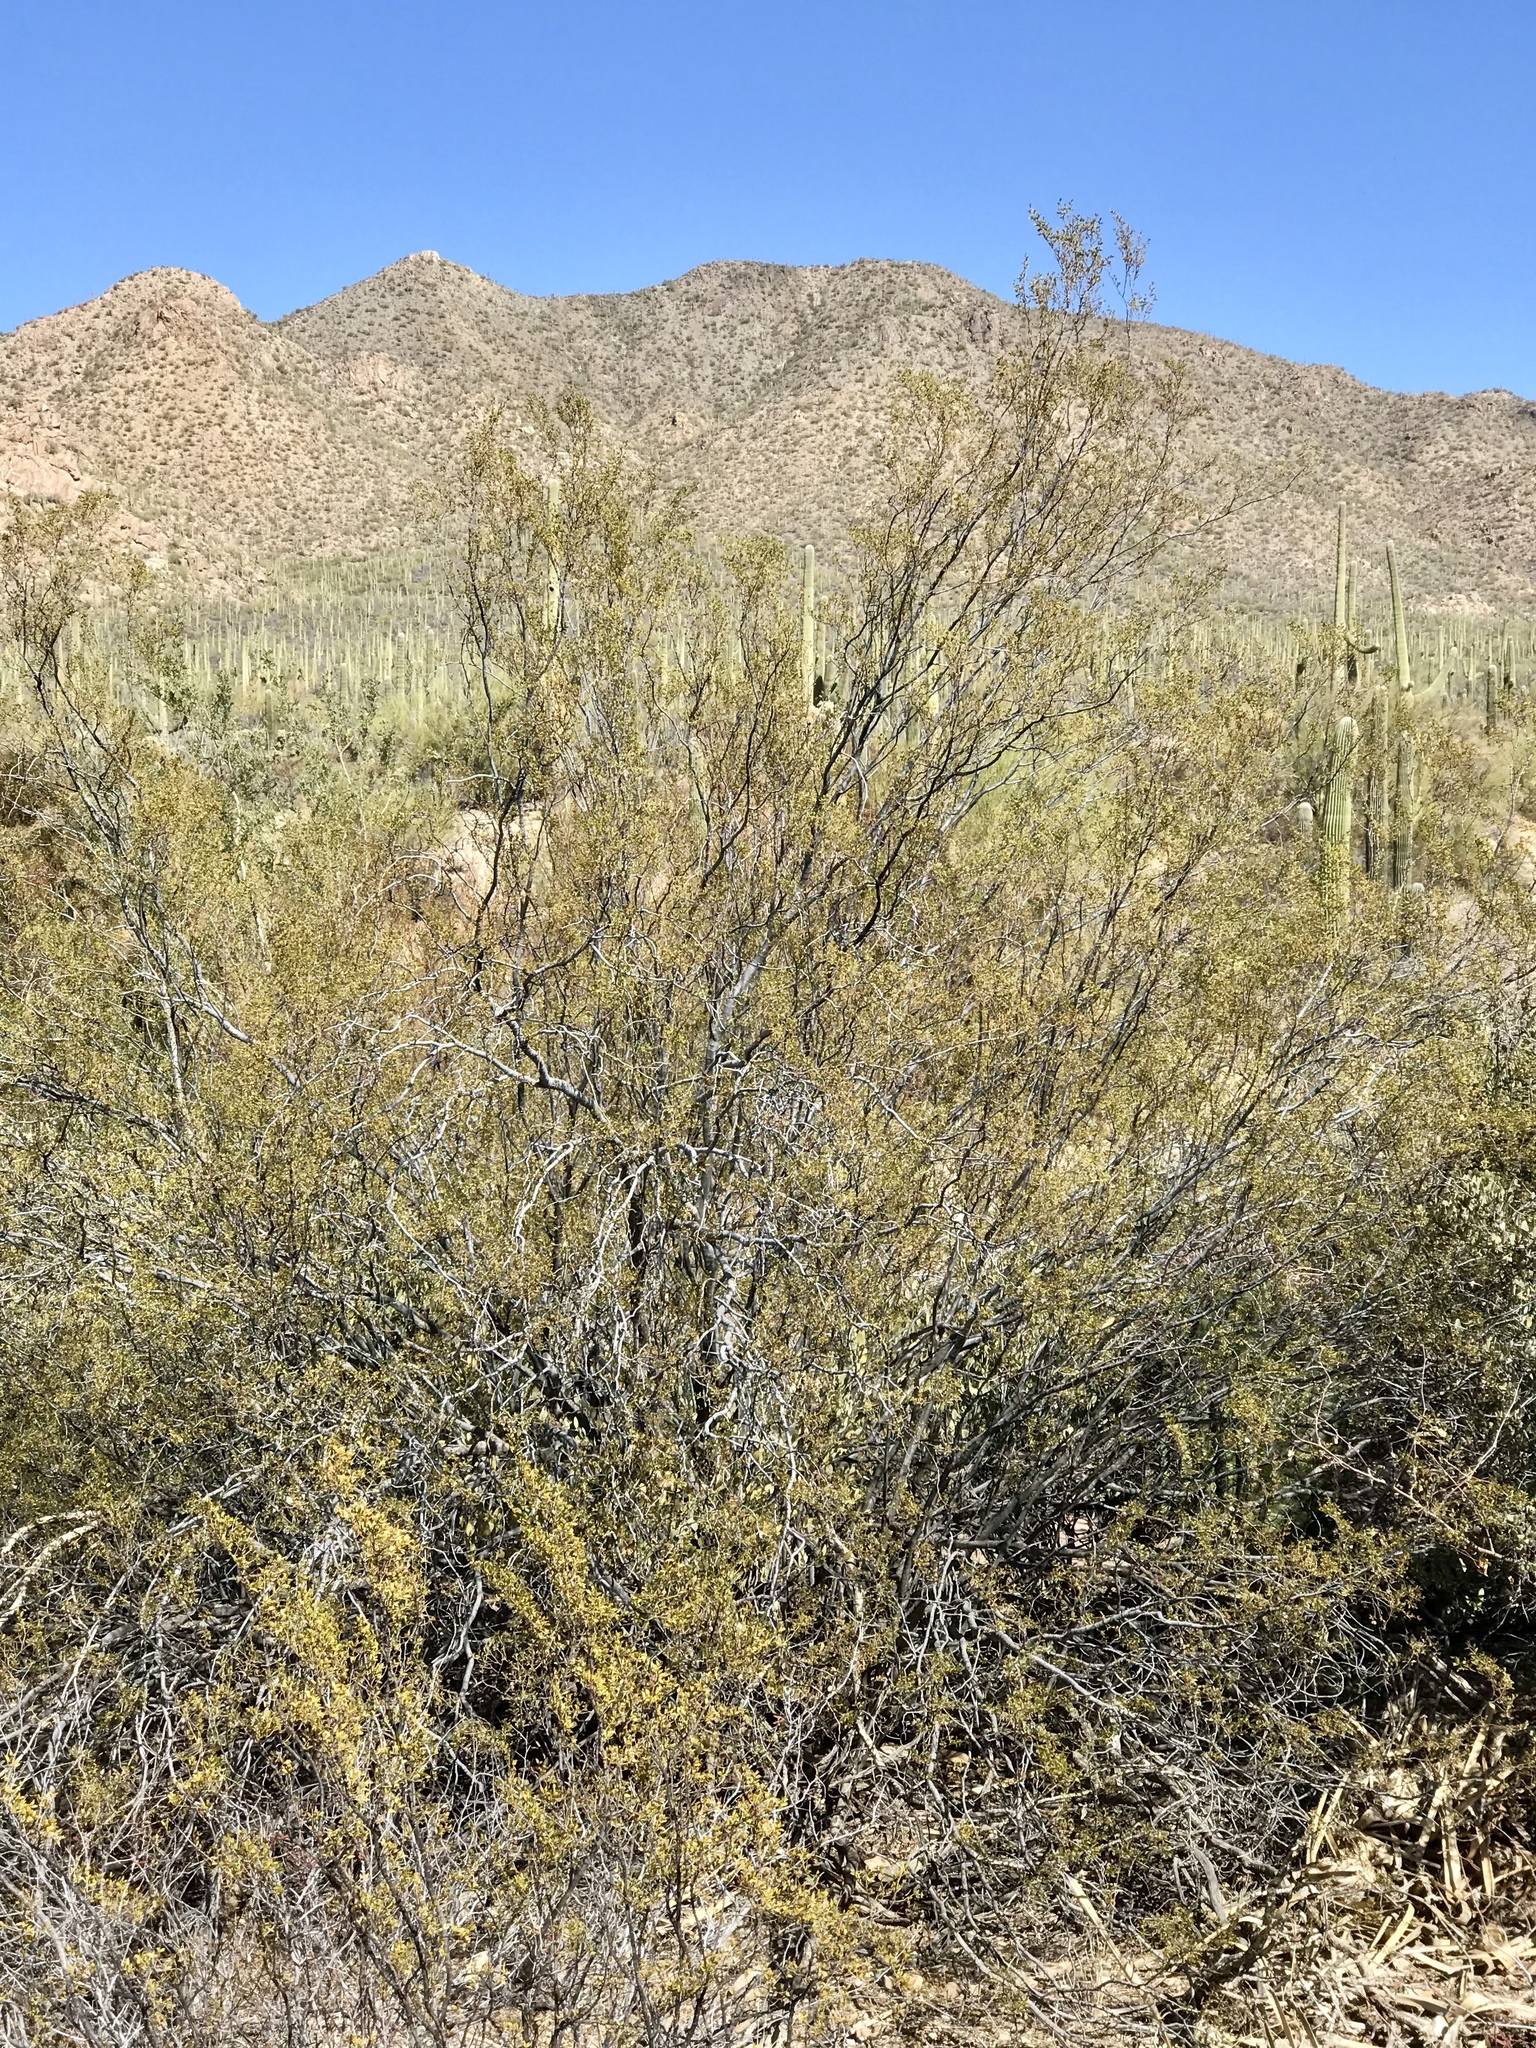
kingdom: Plantae
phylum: Tracheophyta
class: Magnoliopsida
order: Zygophyllales
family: Zygophyllaceae
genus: Larrea
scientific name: Larrea tridentata
